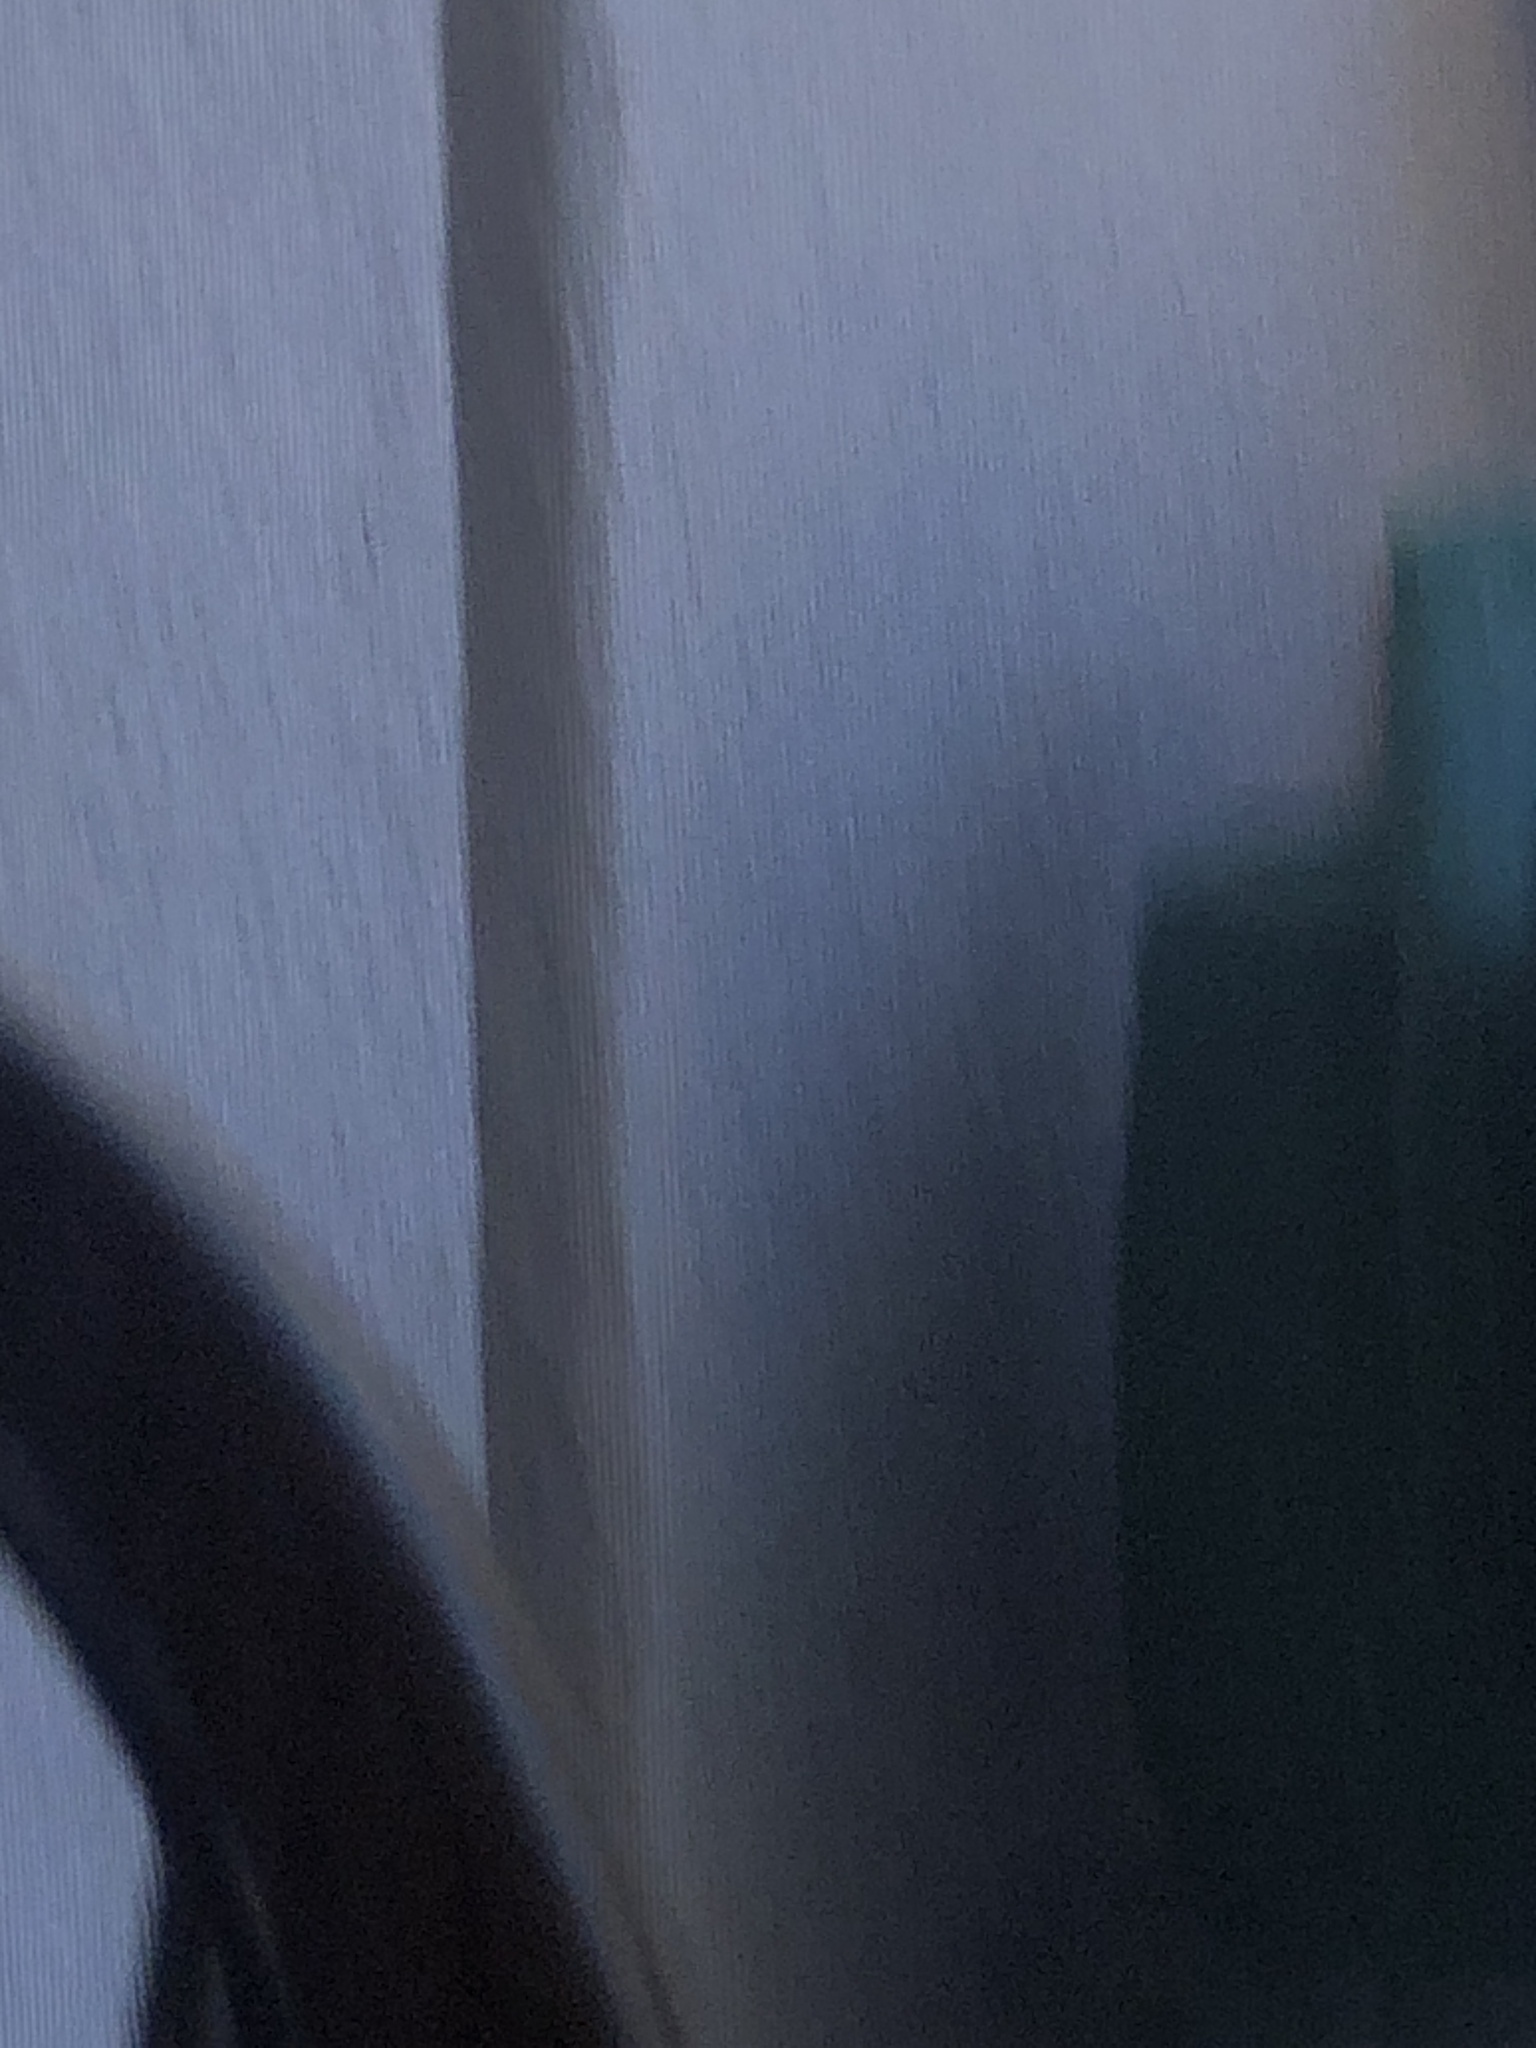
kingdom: Animalia
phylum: Chordata
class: Mammalia
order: Rodentia
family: Sciuridae
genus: Sciurus
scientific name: Sciurus niger
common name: Fox squirrel
